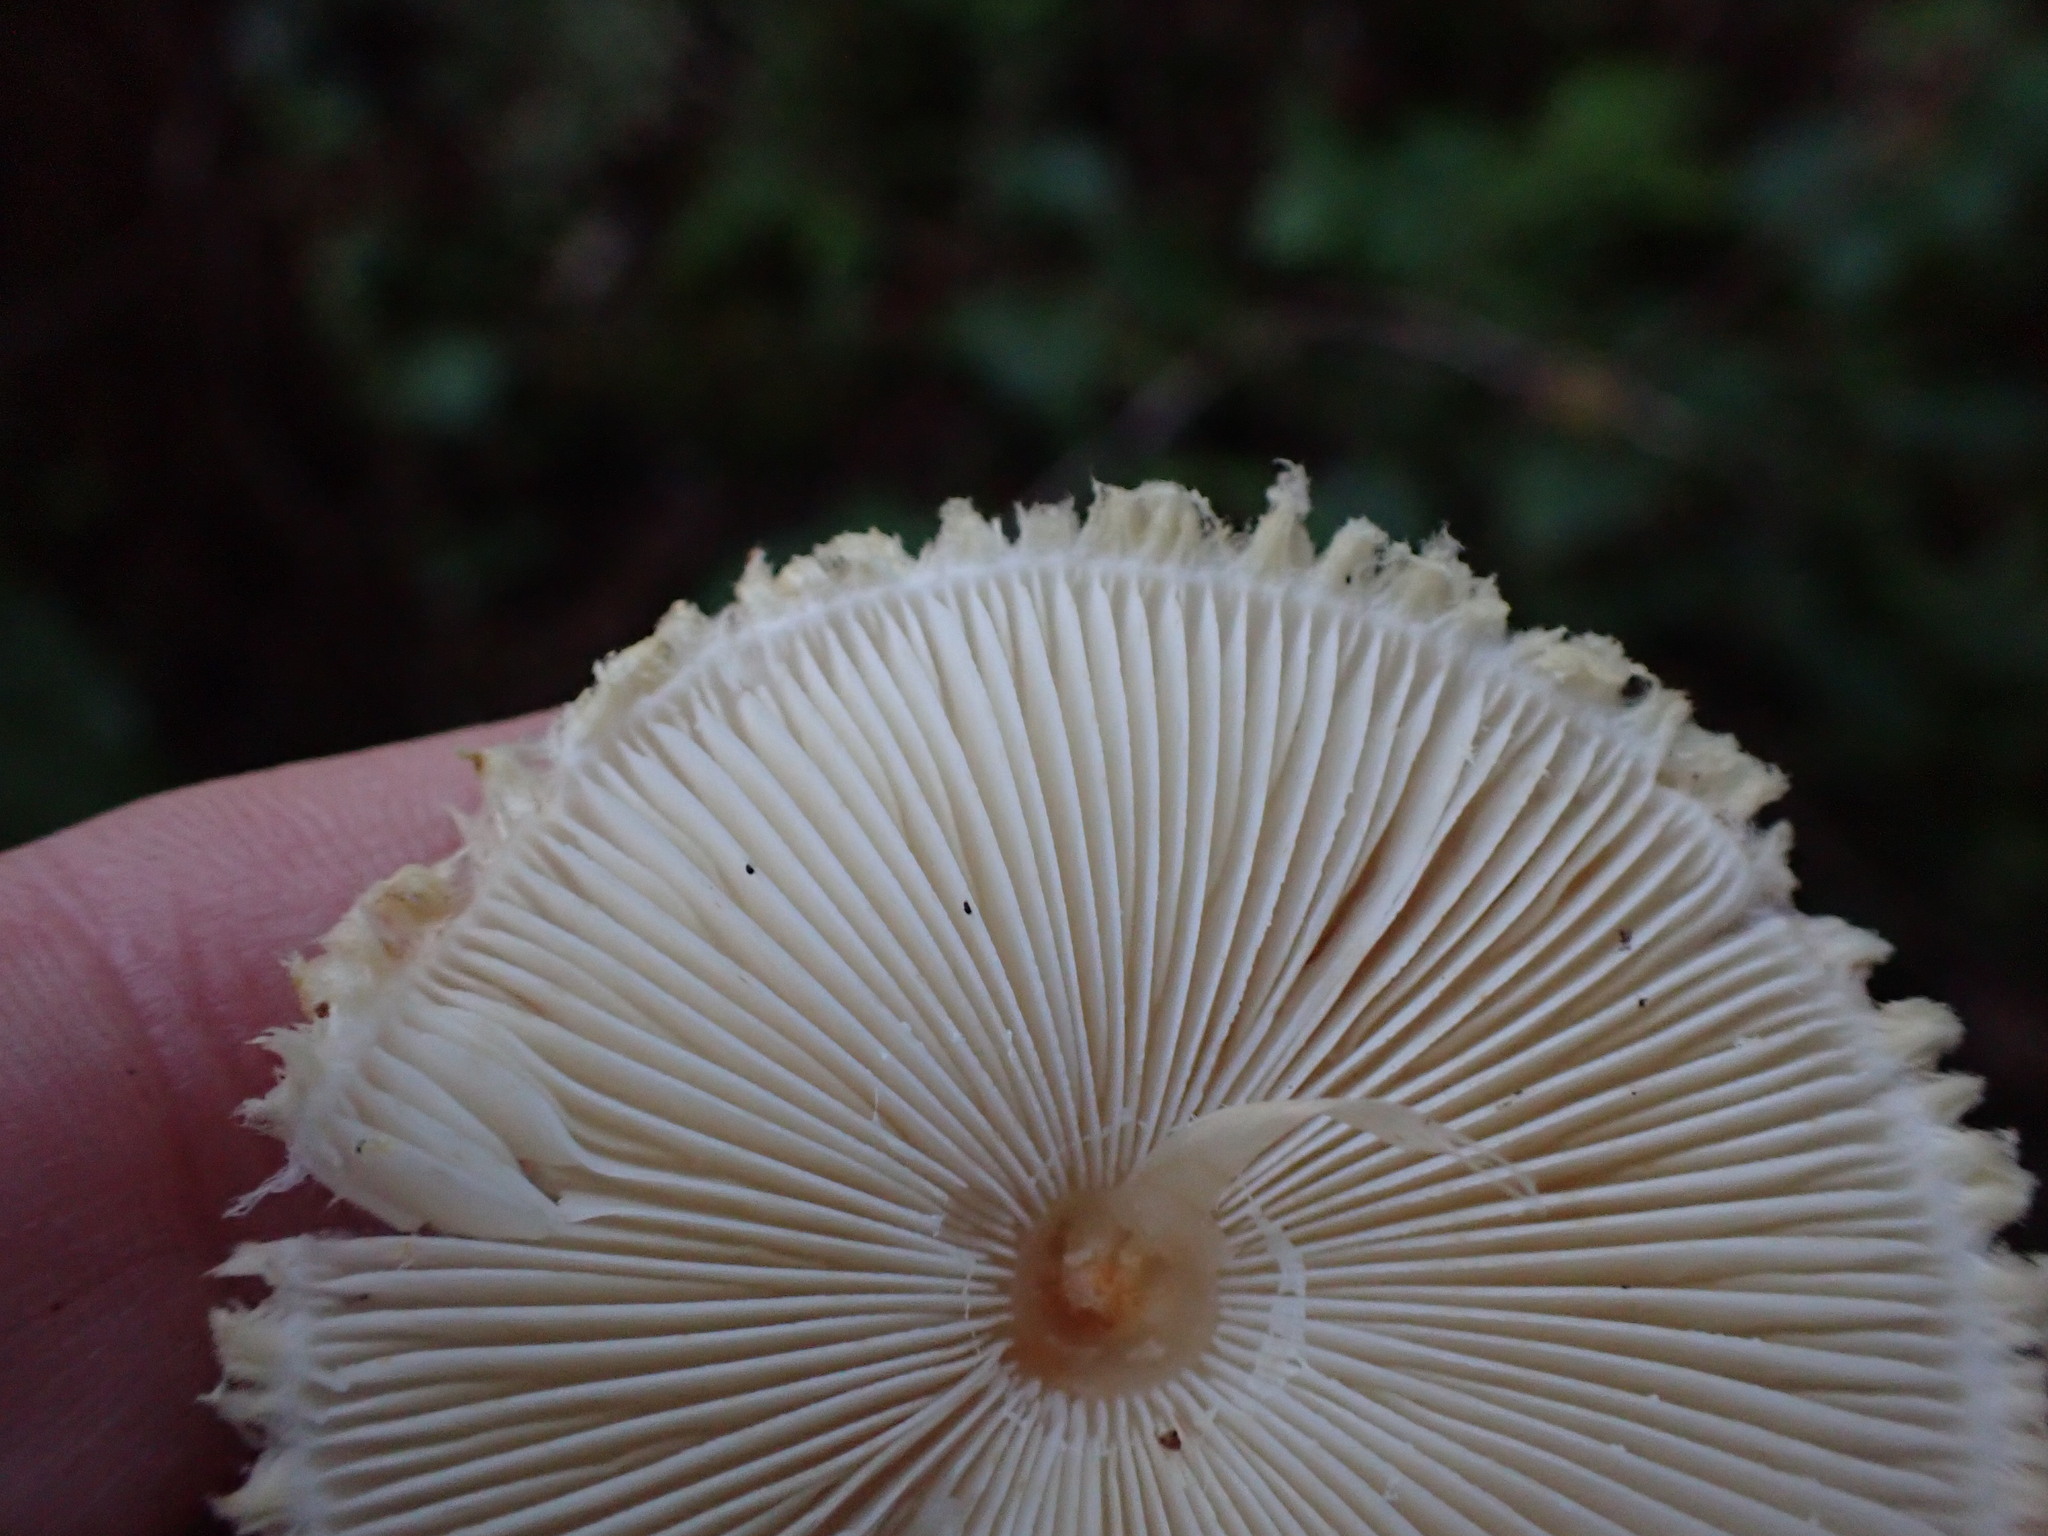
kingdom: Fungi
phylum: Basidiomycota
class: Agaricomycetes
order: Agaricales
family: Agaricaceae
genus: Lepiota
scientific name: Lepiota magnispora
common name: Yellowfoot dapperling
